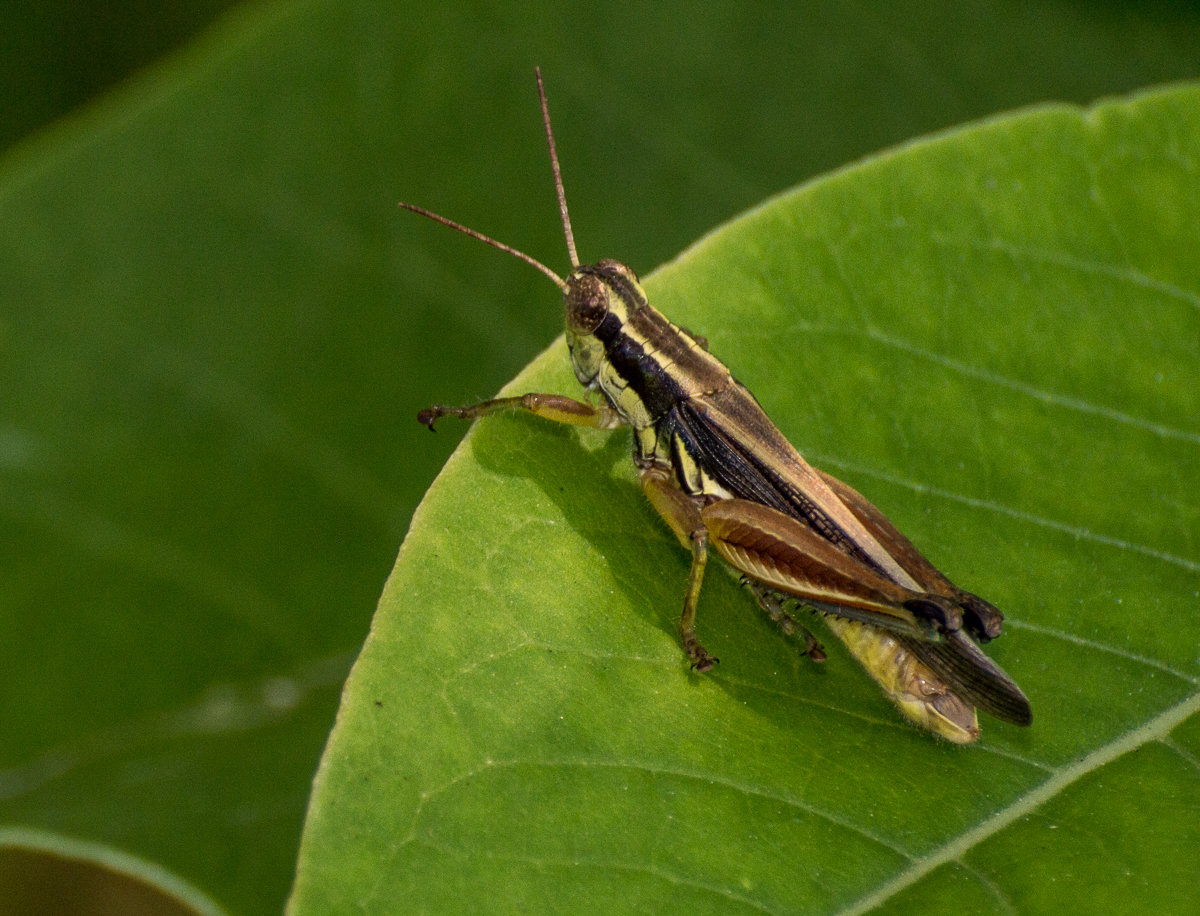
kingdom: Animalia
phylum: Arthropoda
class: Insecta
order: Orthoptera
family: Acrididae
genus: Dichroplus
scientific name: Dichroplus elongatus
